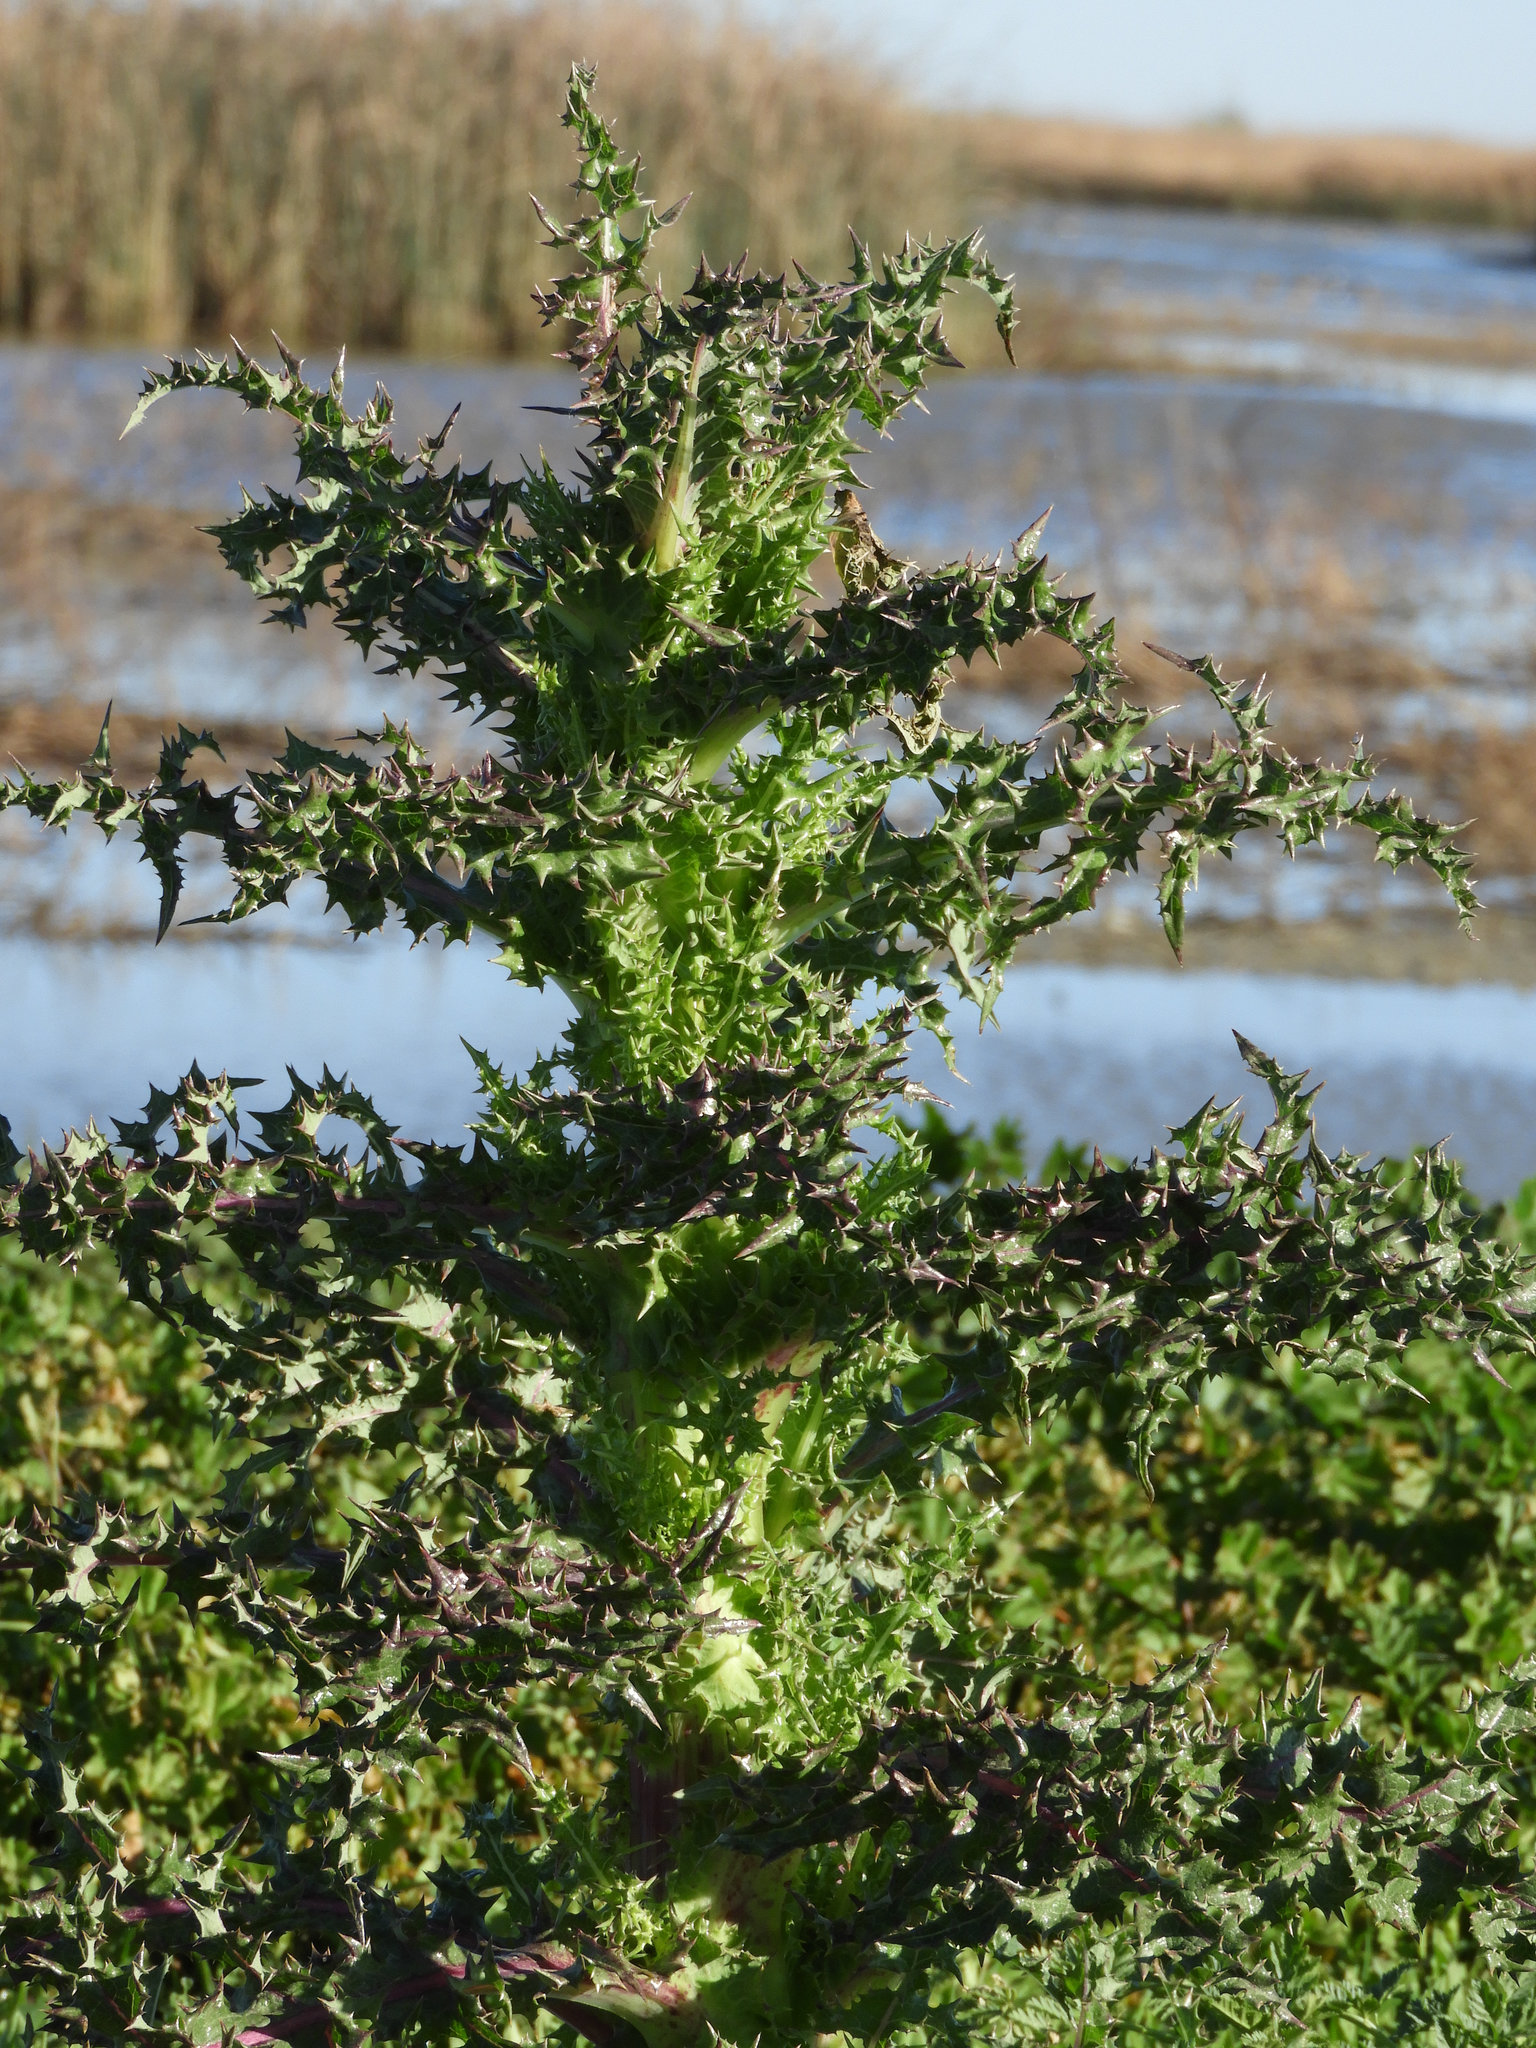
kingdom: Plantae
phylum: Tracheophyta
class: Magnoliopsida
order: Asterales
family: Asteraceae
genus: Sonchus
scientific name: Sonchus asper
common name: Prickly sow-thistle
